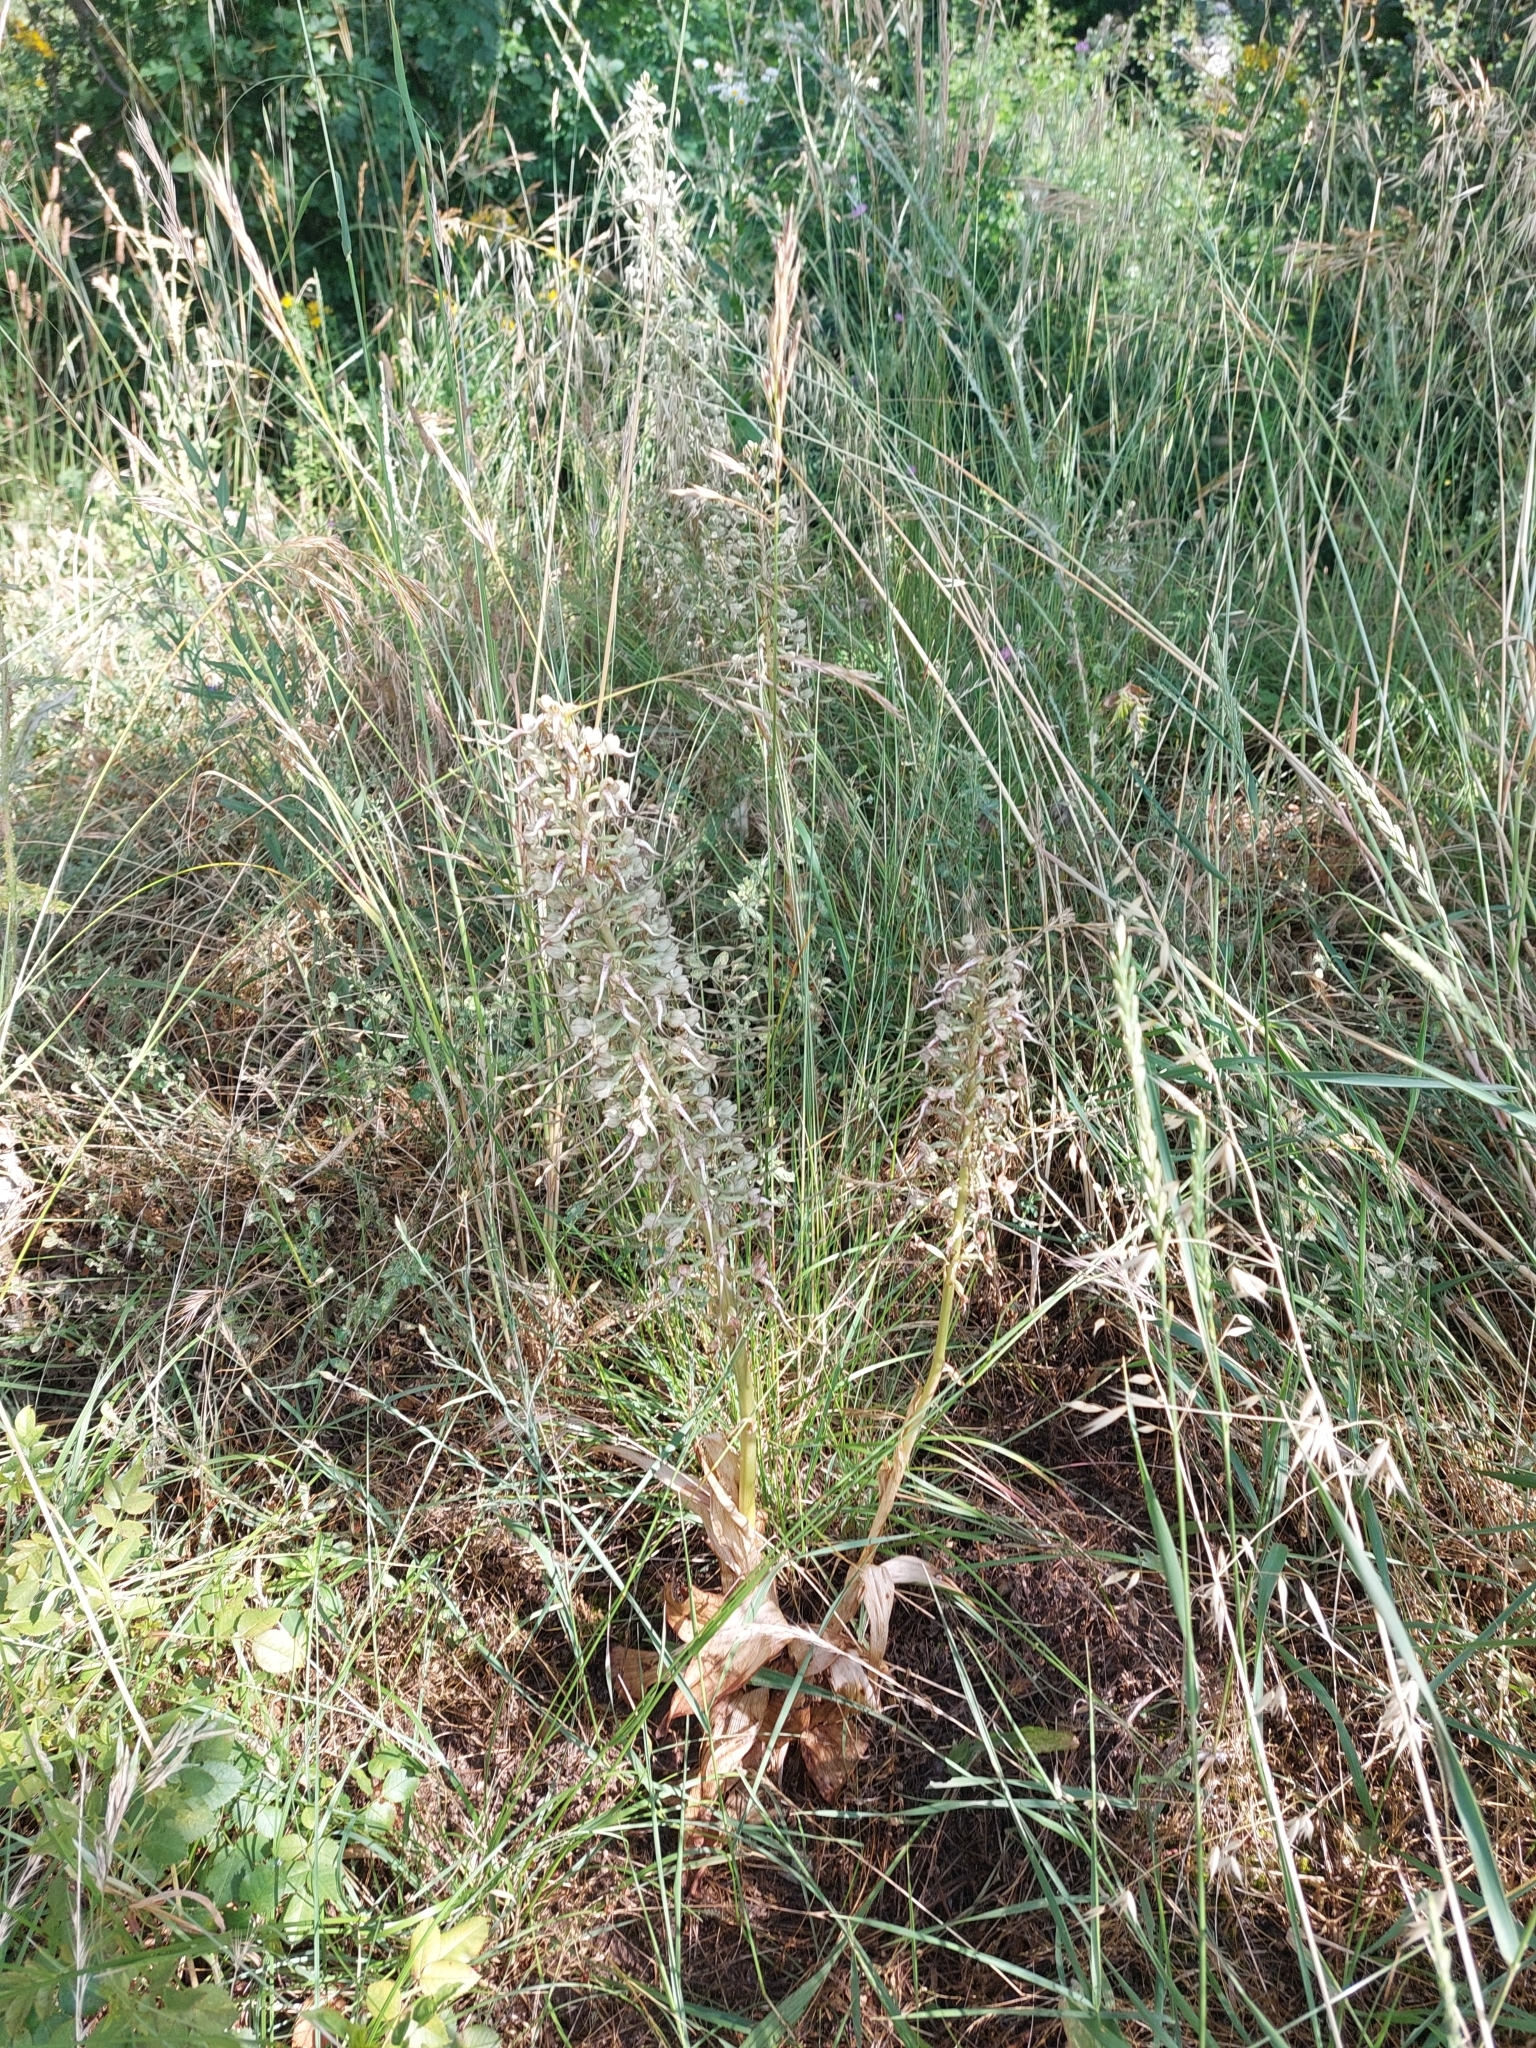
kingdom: Plantae
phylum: Tracheophyta
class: Liliopsida
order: Asparagales
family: Orchidaceae
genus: Himantoglossum
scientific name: Himantoglossum hircinum
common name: Lizard orchid
